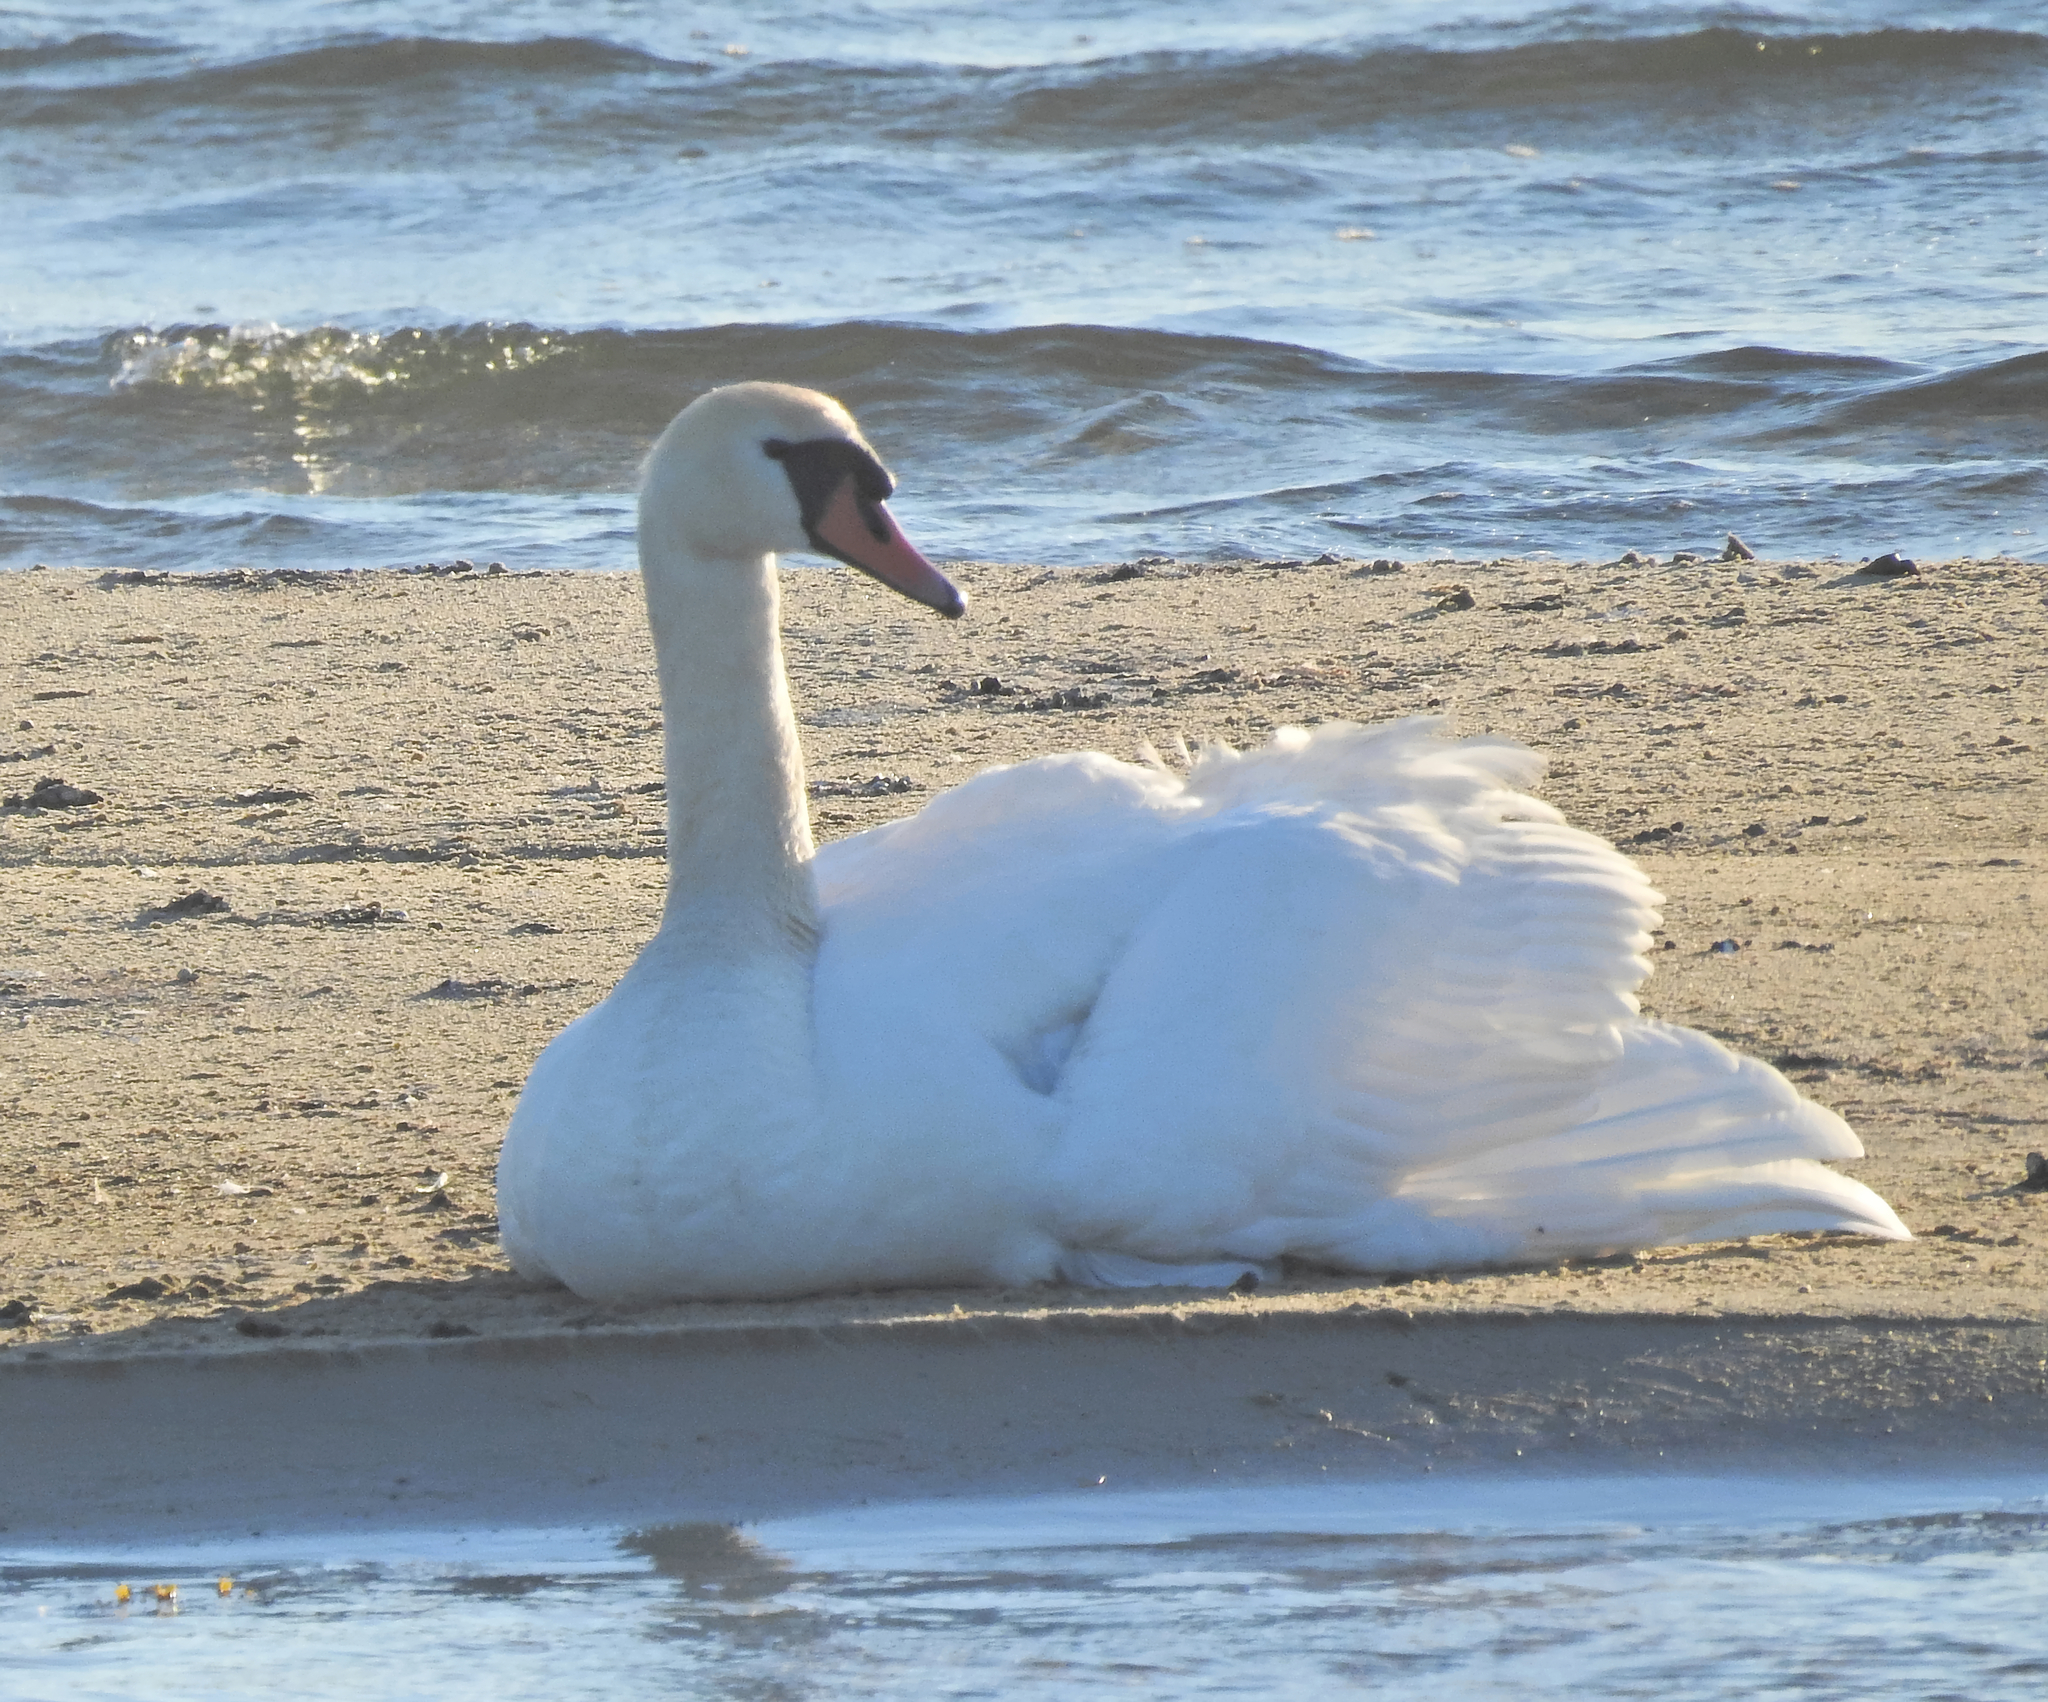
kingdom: Animalia
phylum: Chordata
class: Aves
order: Anseriformes
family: Anatidae
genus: Cygnus
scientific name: Cygnus olor
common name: Mute swan
